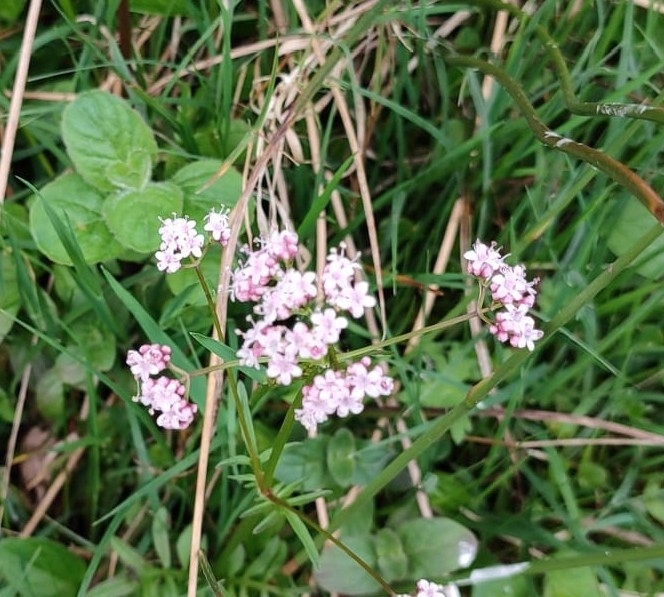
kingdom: Plantae
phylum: Tracheophyta
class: Magnoliopsida
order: Dipsacales
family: Caprifoliaceae
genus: Valeriana
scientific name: Valeriana dioica
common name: Marsh valerian
